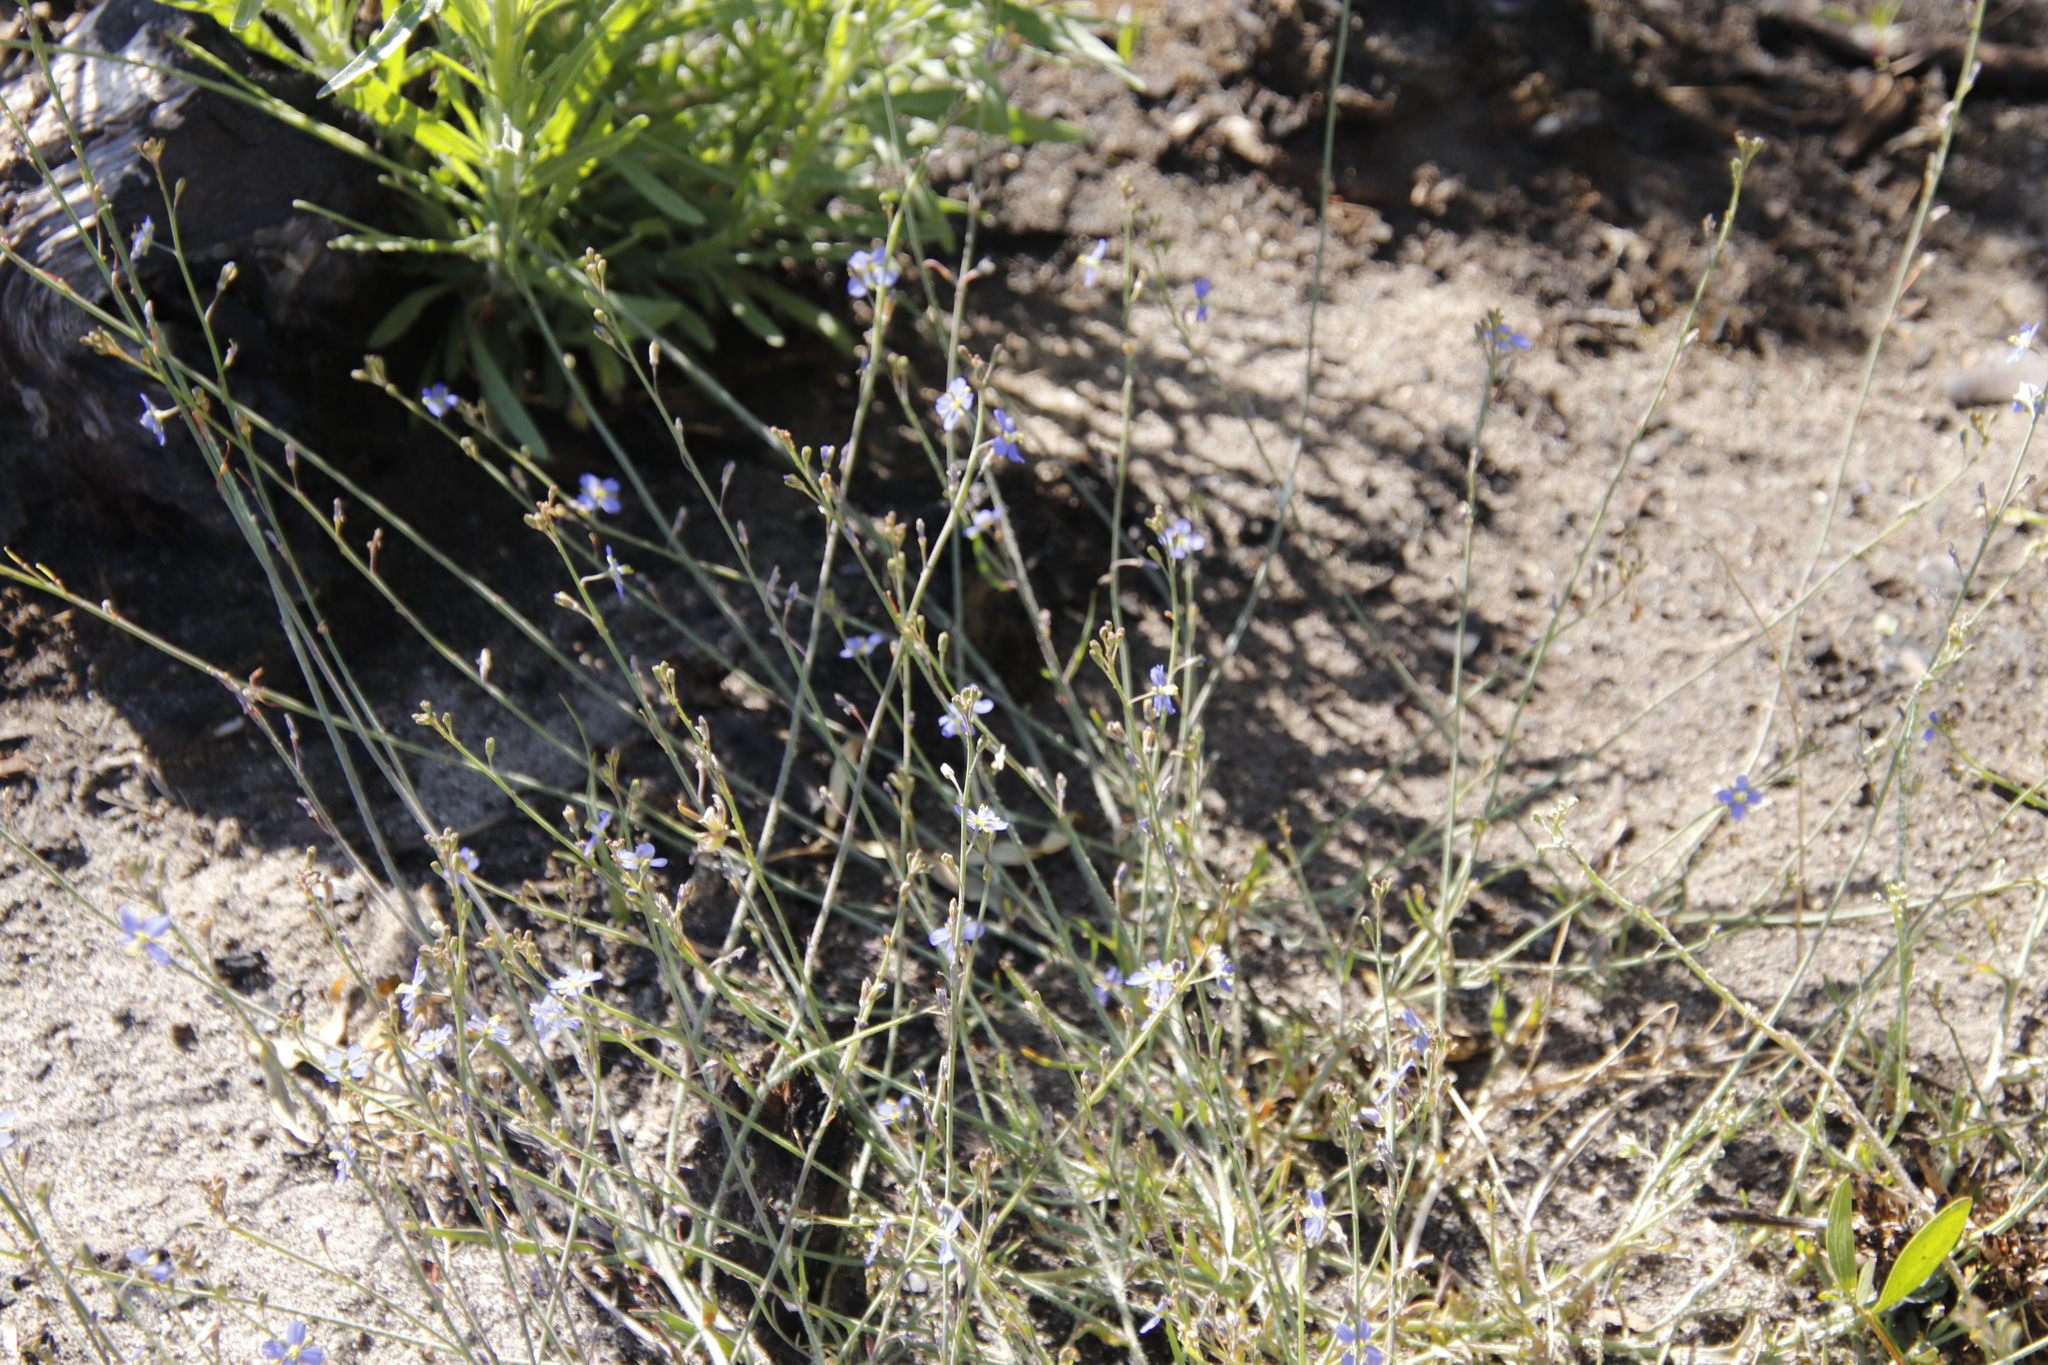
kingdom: Plantae
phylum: Tracheophyta
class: Magnoliopsida
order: Brassicales
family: Brassicaceae
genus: Heliophila
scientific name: Heliophila africana
